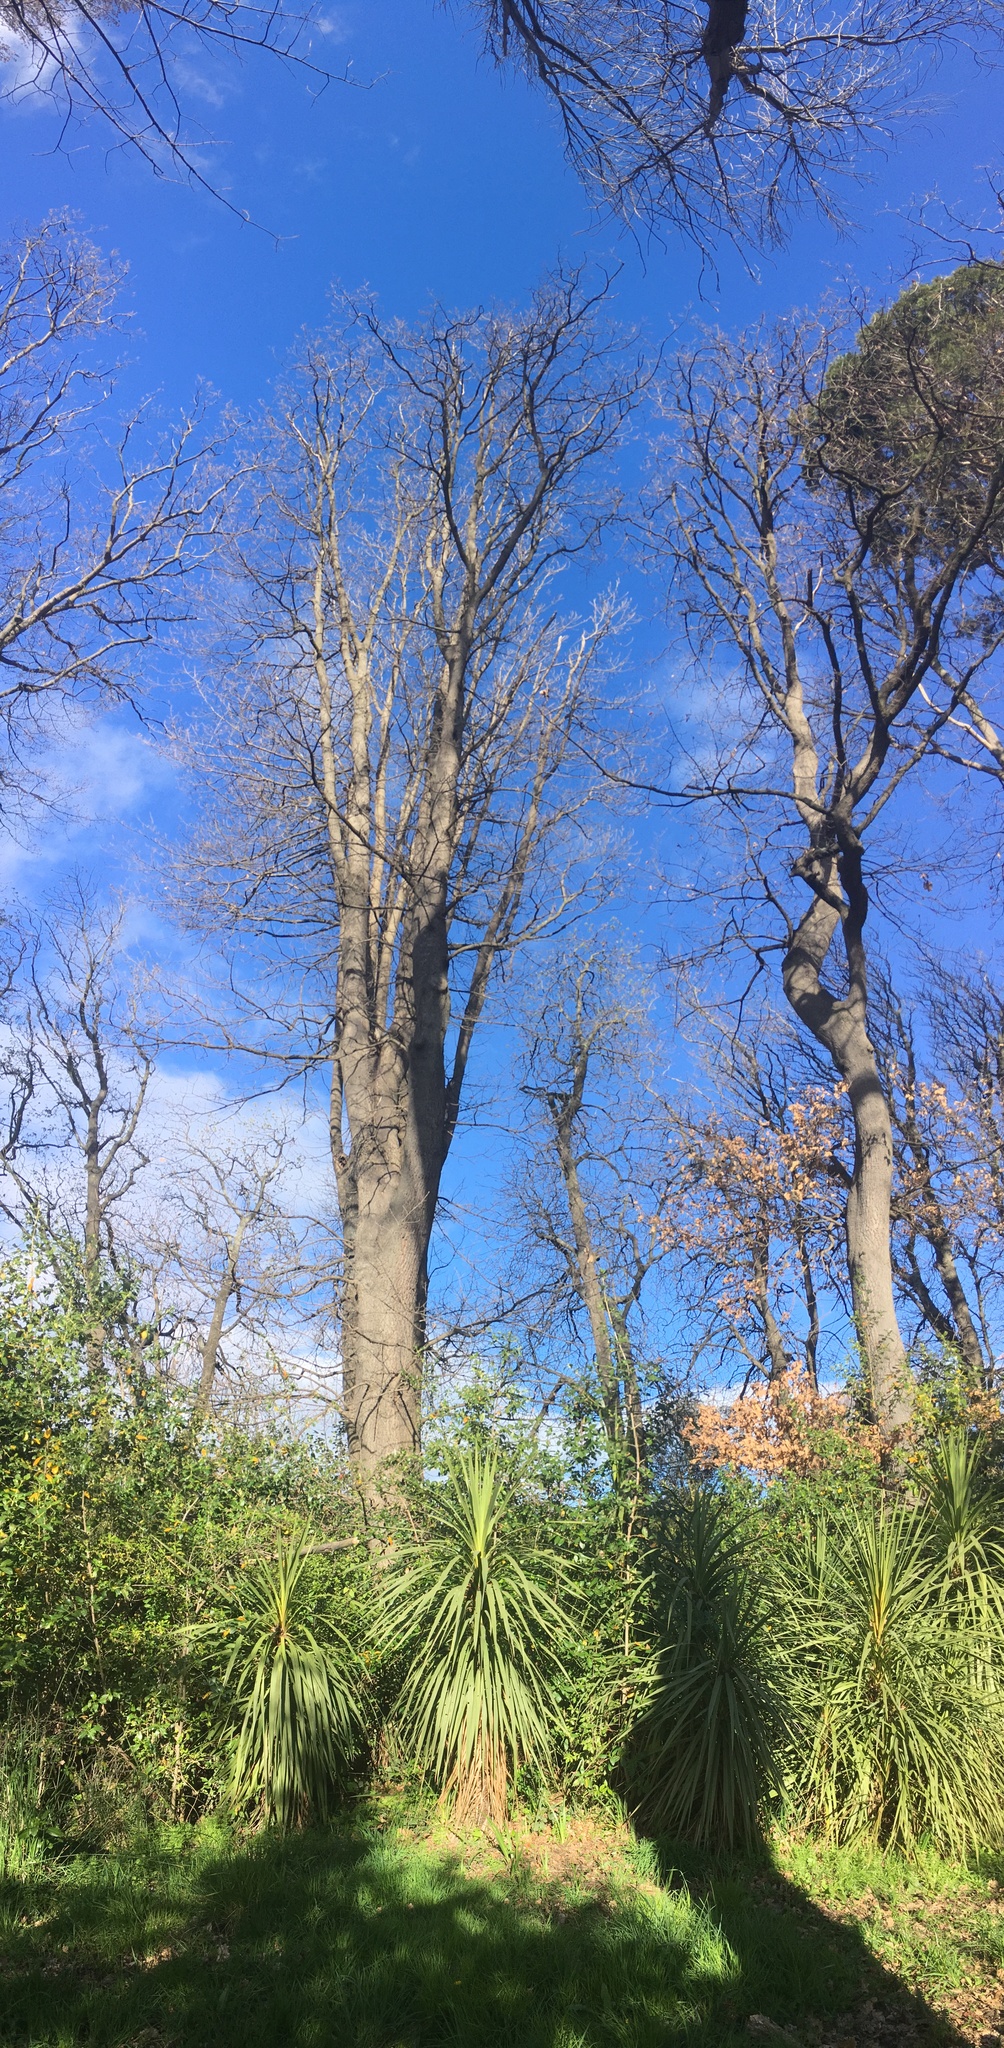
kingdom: Plantae
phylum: Tracheophyta
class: Liliopsida
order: Asparagales
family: Asparagaceae
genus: Cordyline
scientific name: Cordyline australis
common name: Cabbage-palm
